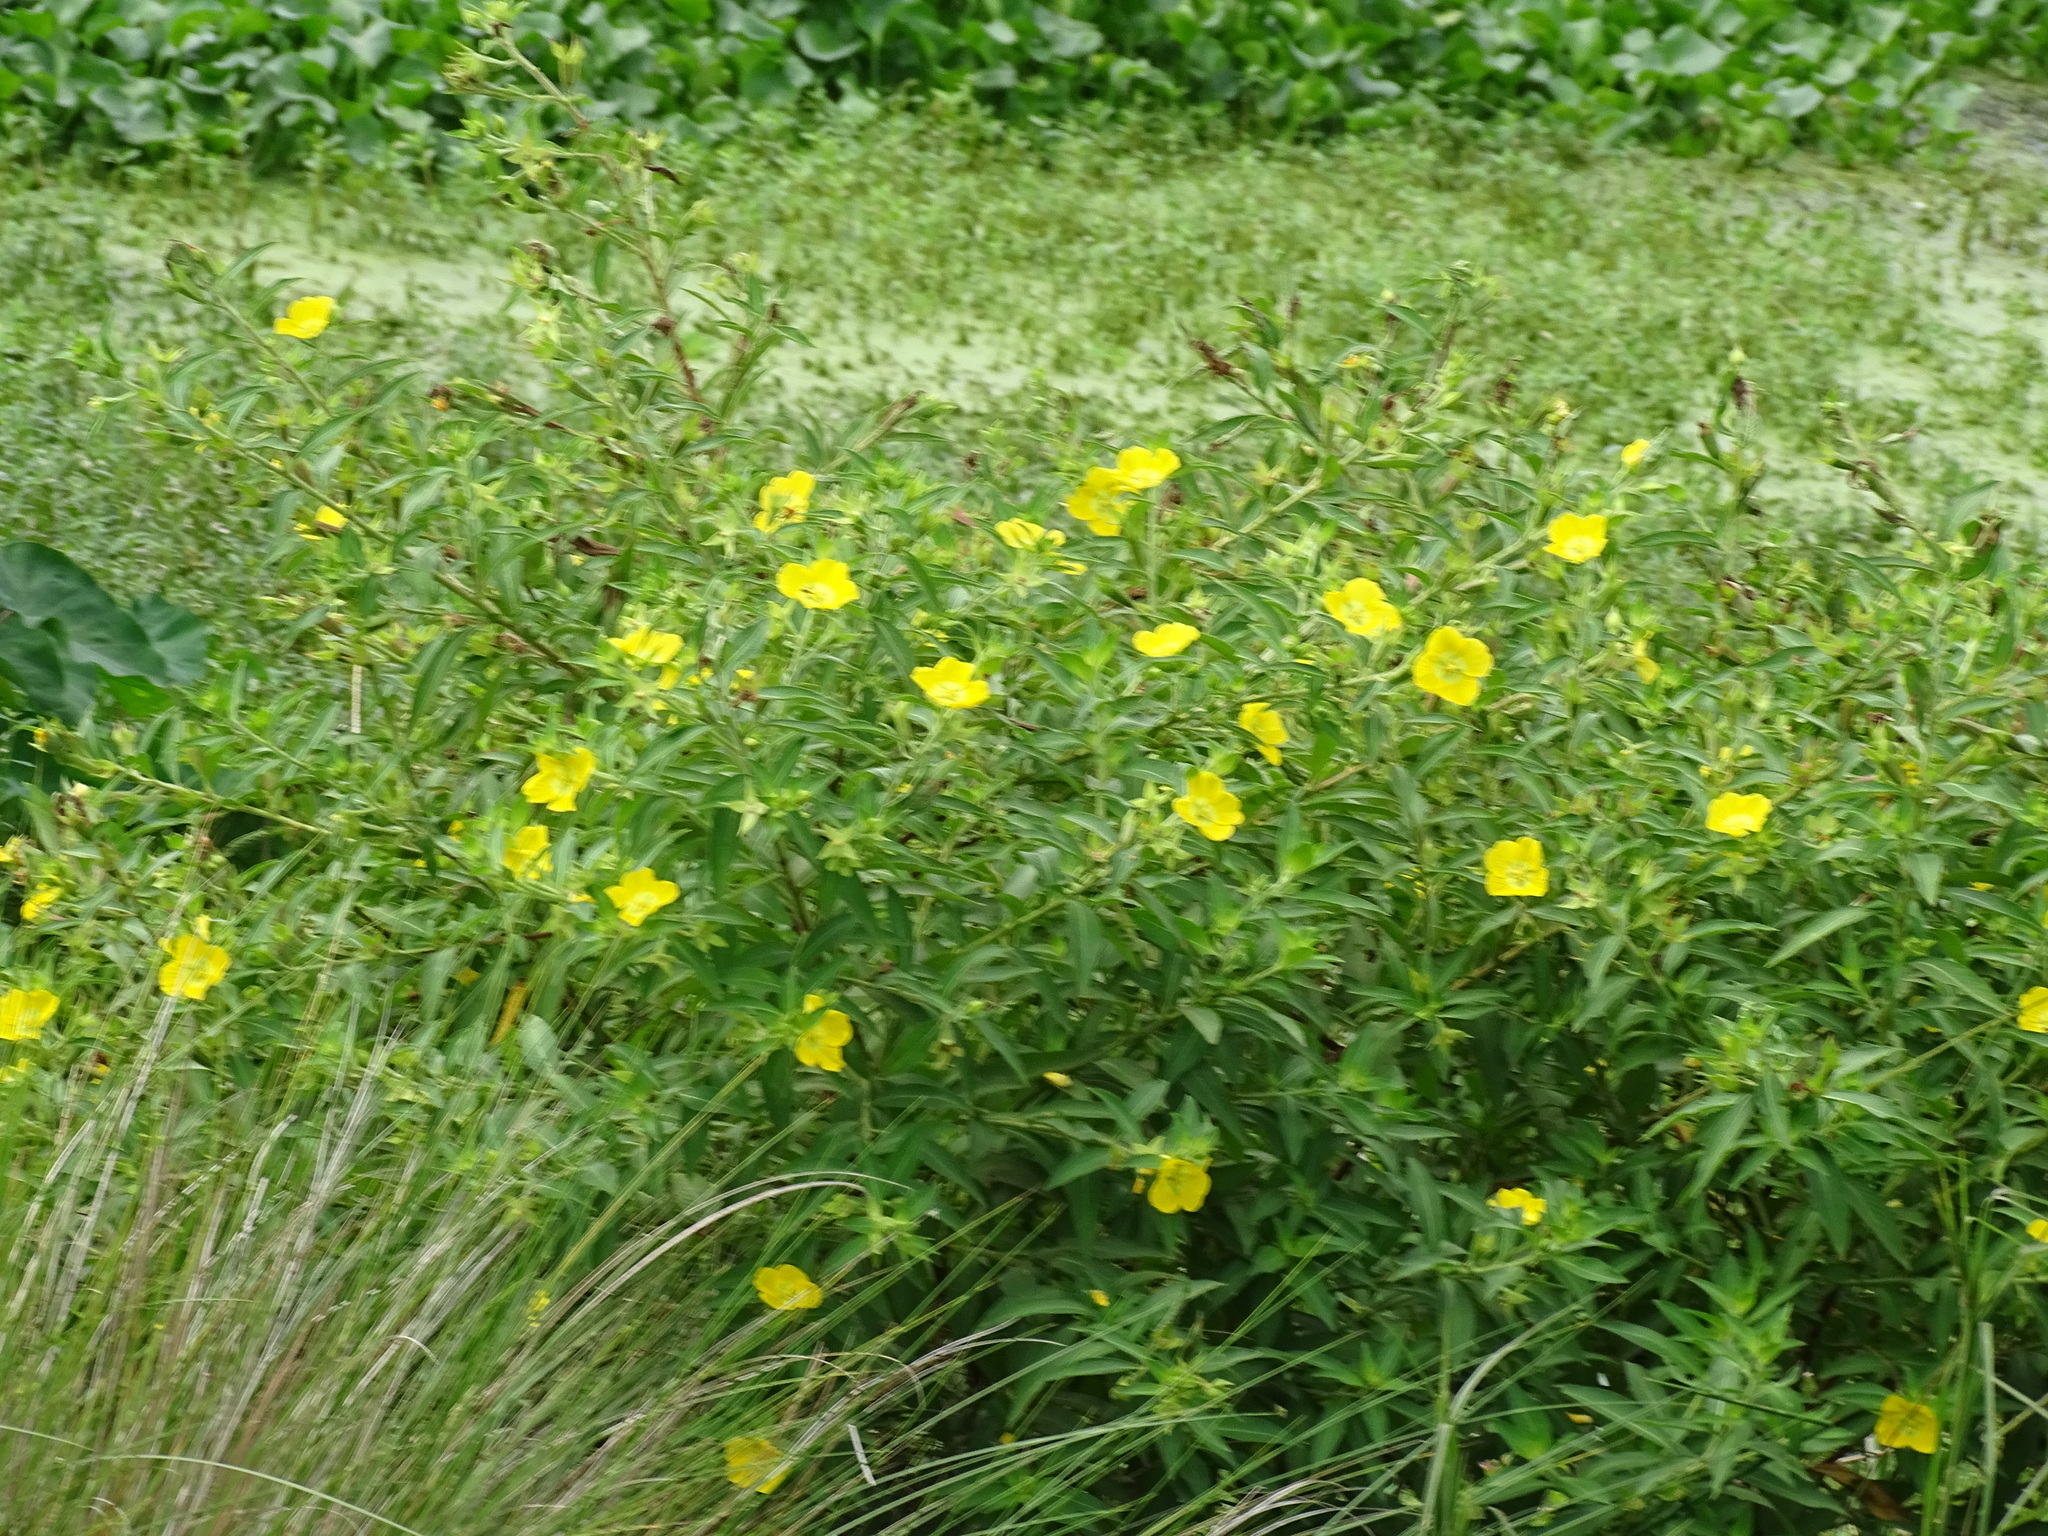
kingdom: Plantae
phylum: Tracheophyta
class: Magnoliopsida
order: Myrtales
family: Onagraceae
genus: Ludwigia
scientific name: Ludwigia peruviana
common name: Peruvian primrose-willow
